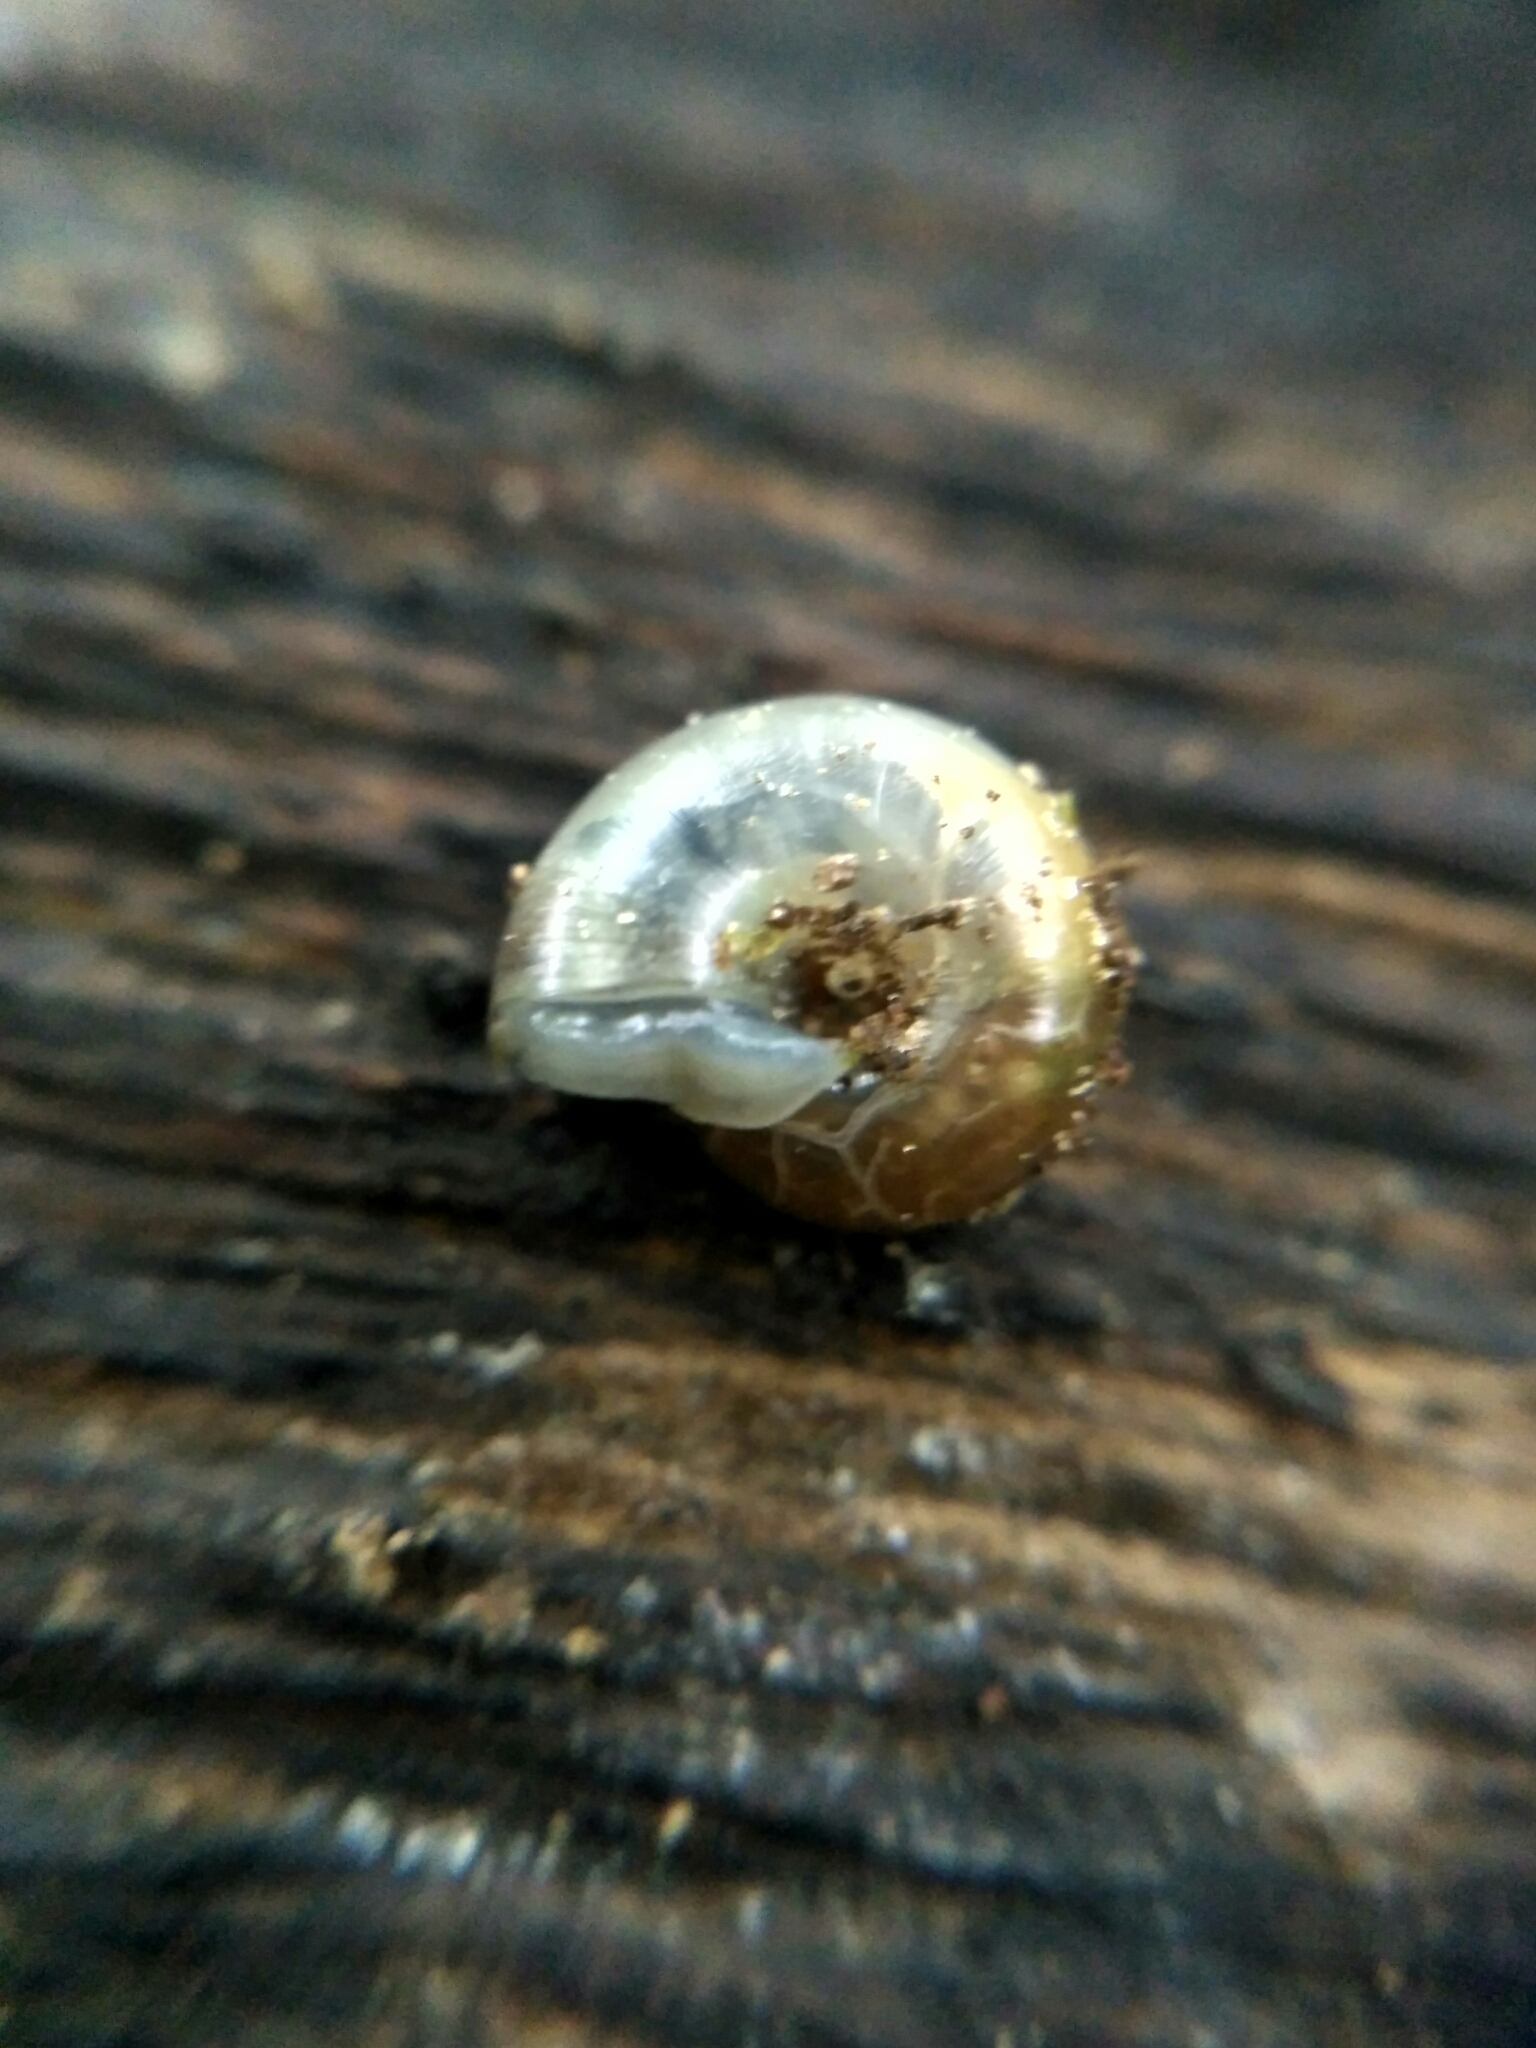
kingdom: Animalia
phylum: Mollusca
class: Gastropoda
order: Stylommatophora
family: Gastrodontidae
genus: Aegopinella
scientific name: Aegopinella minor
